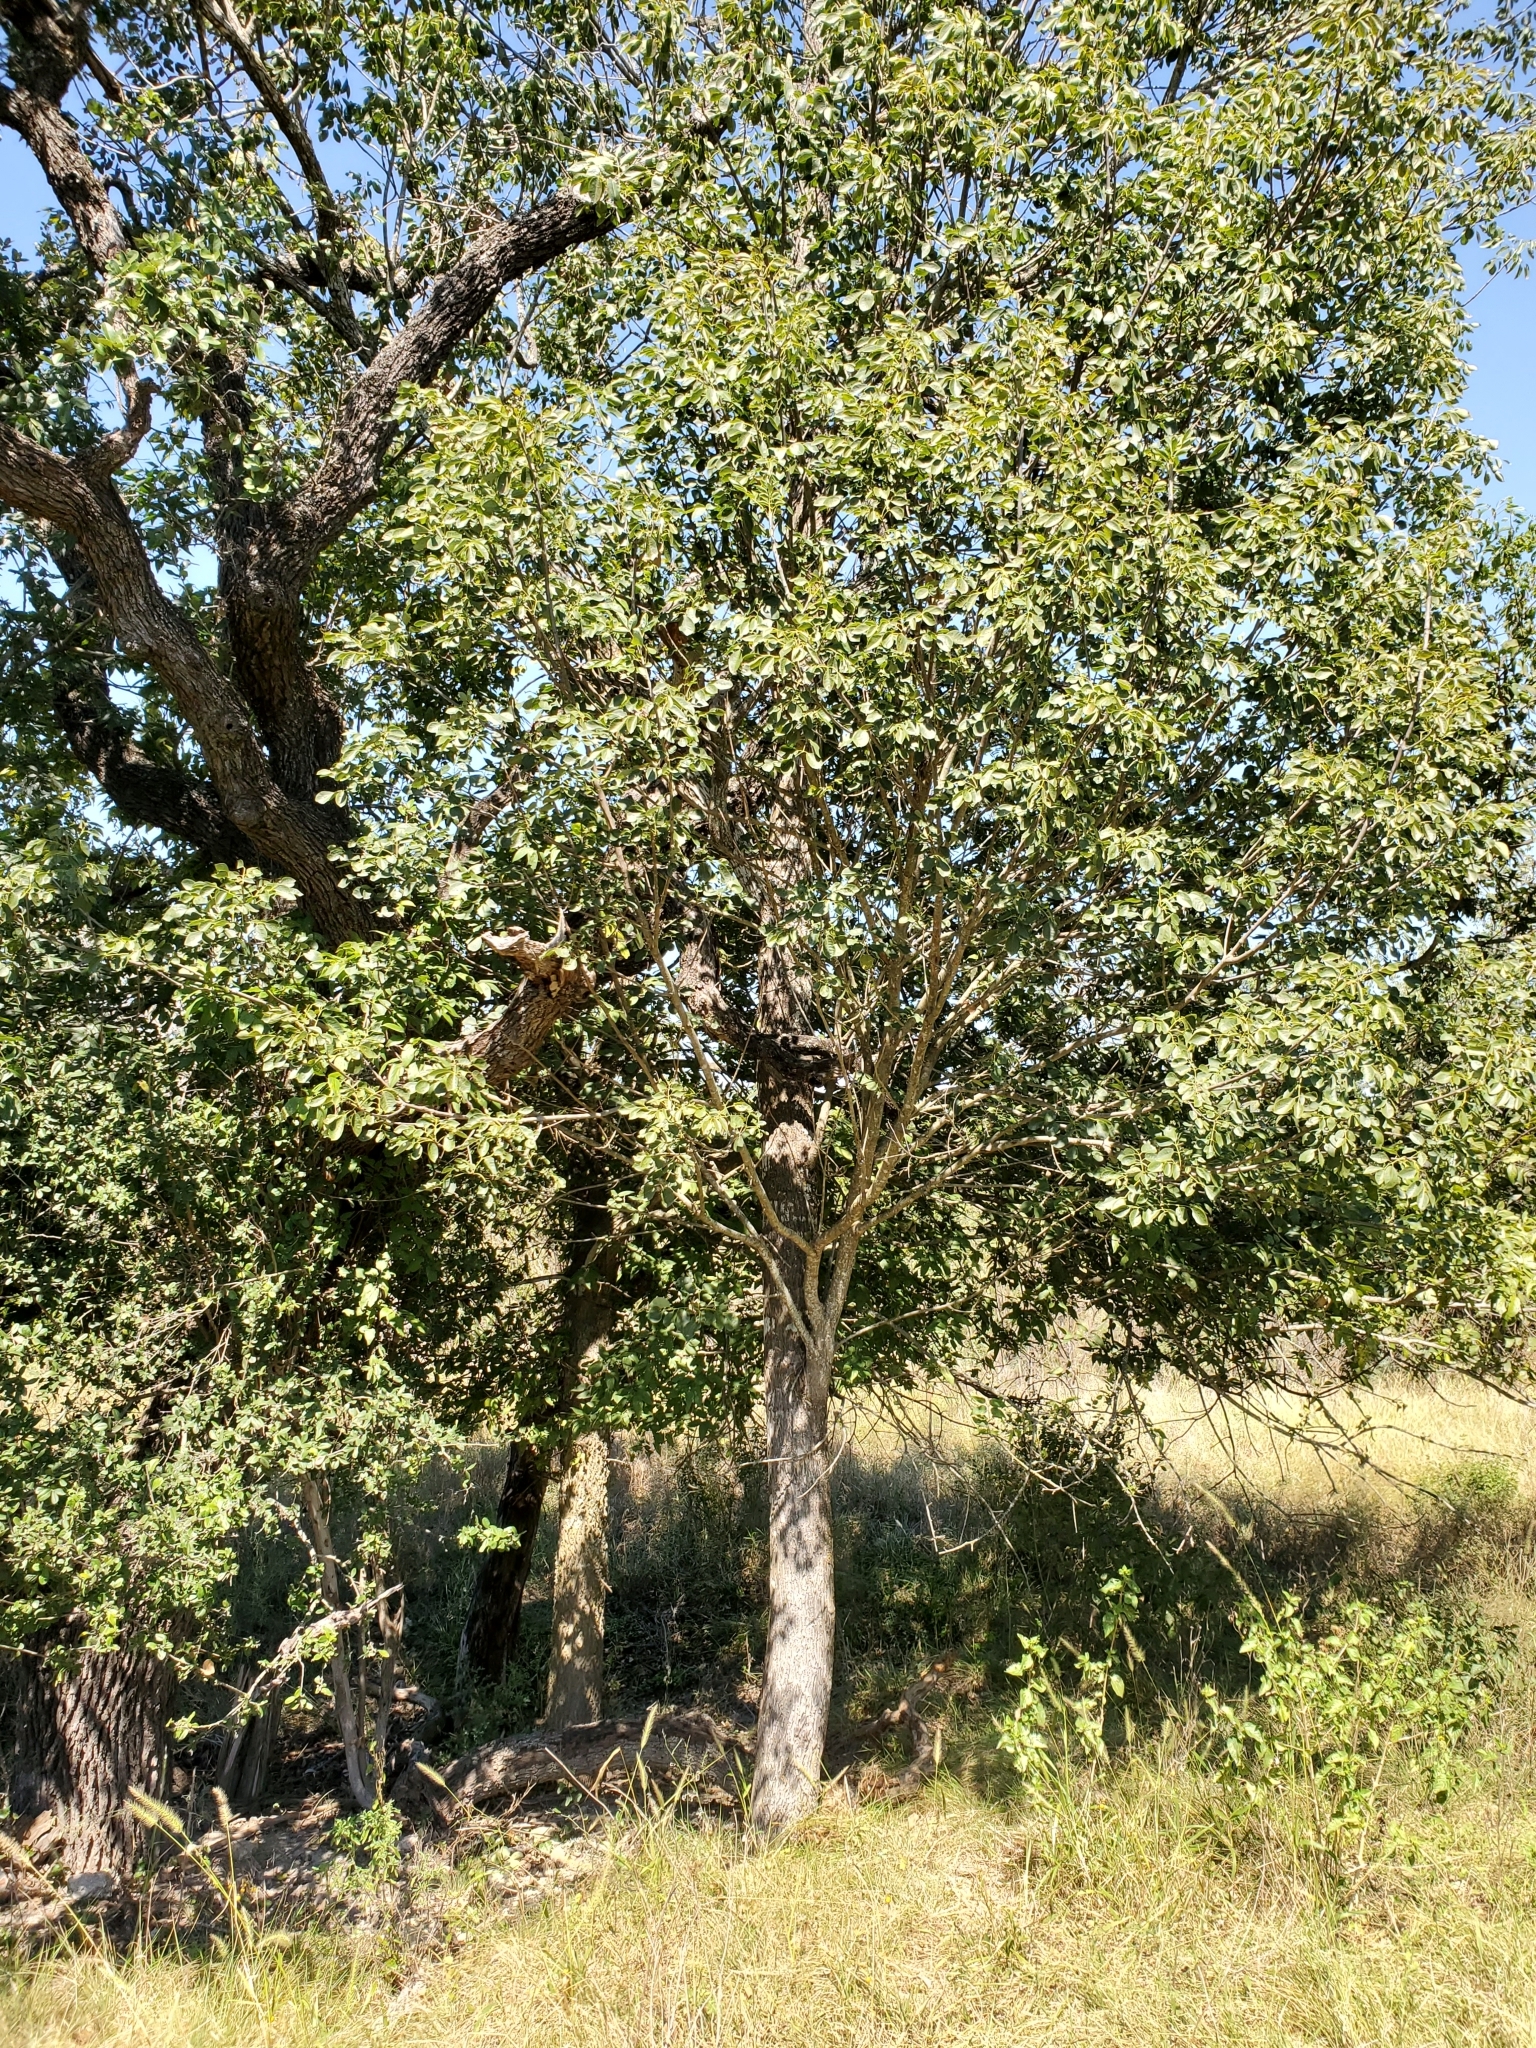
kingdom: Plantae
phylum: Tracheophyta
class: Magnoliopsida
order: Lamiales
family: Oleaceae
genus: Fraxinus
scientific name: Fraxinus albicans
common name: Texas ash
